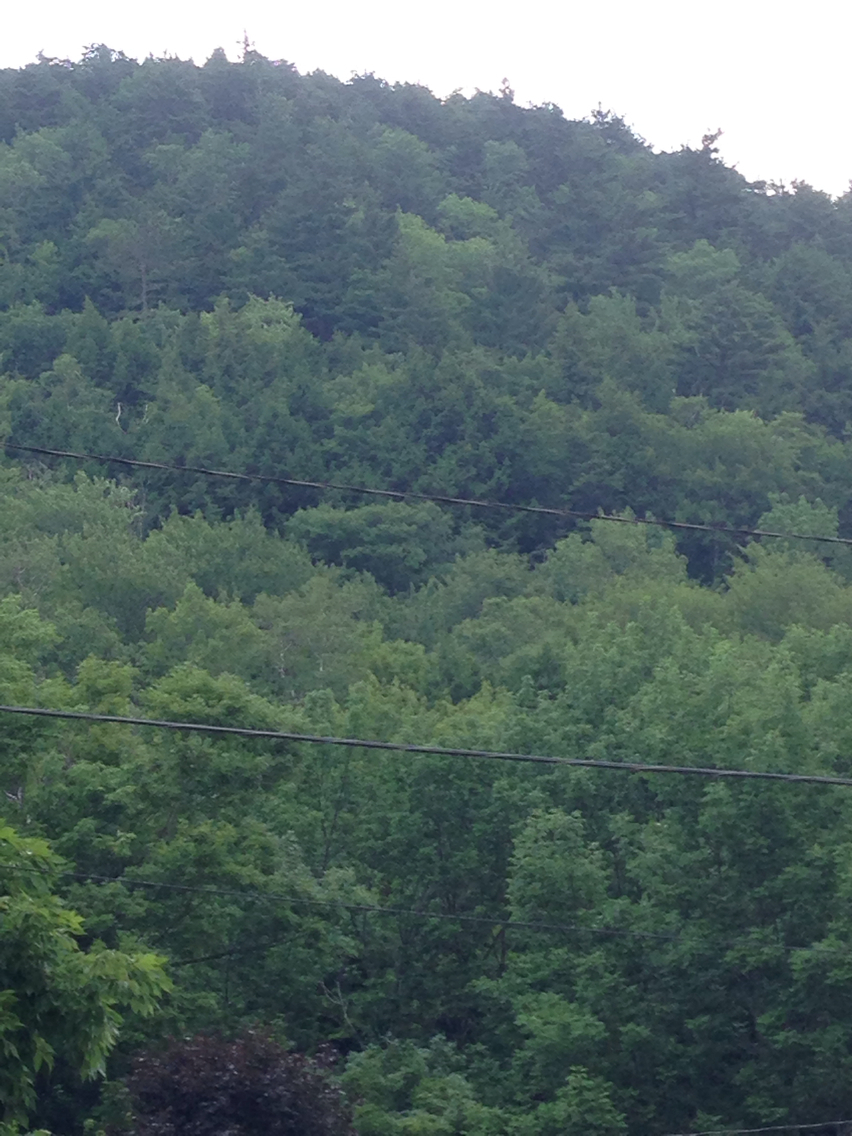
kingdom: Plantae
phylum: Tracheophyta
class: Pinopsida
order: Pinales
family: Pinaceae
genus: Tsuga
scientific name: Tsuga canadensis
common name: Eastern hemlock
